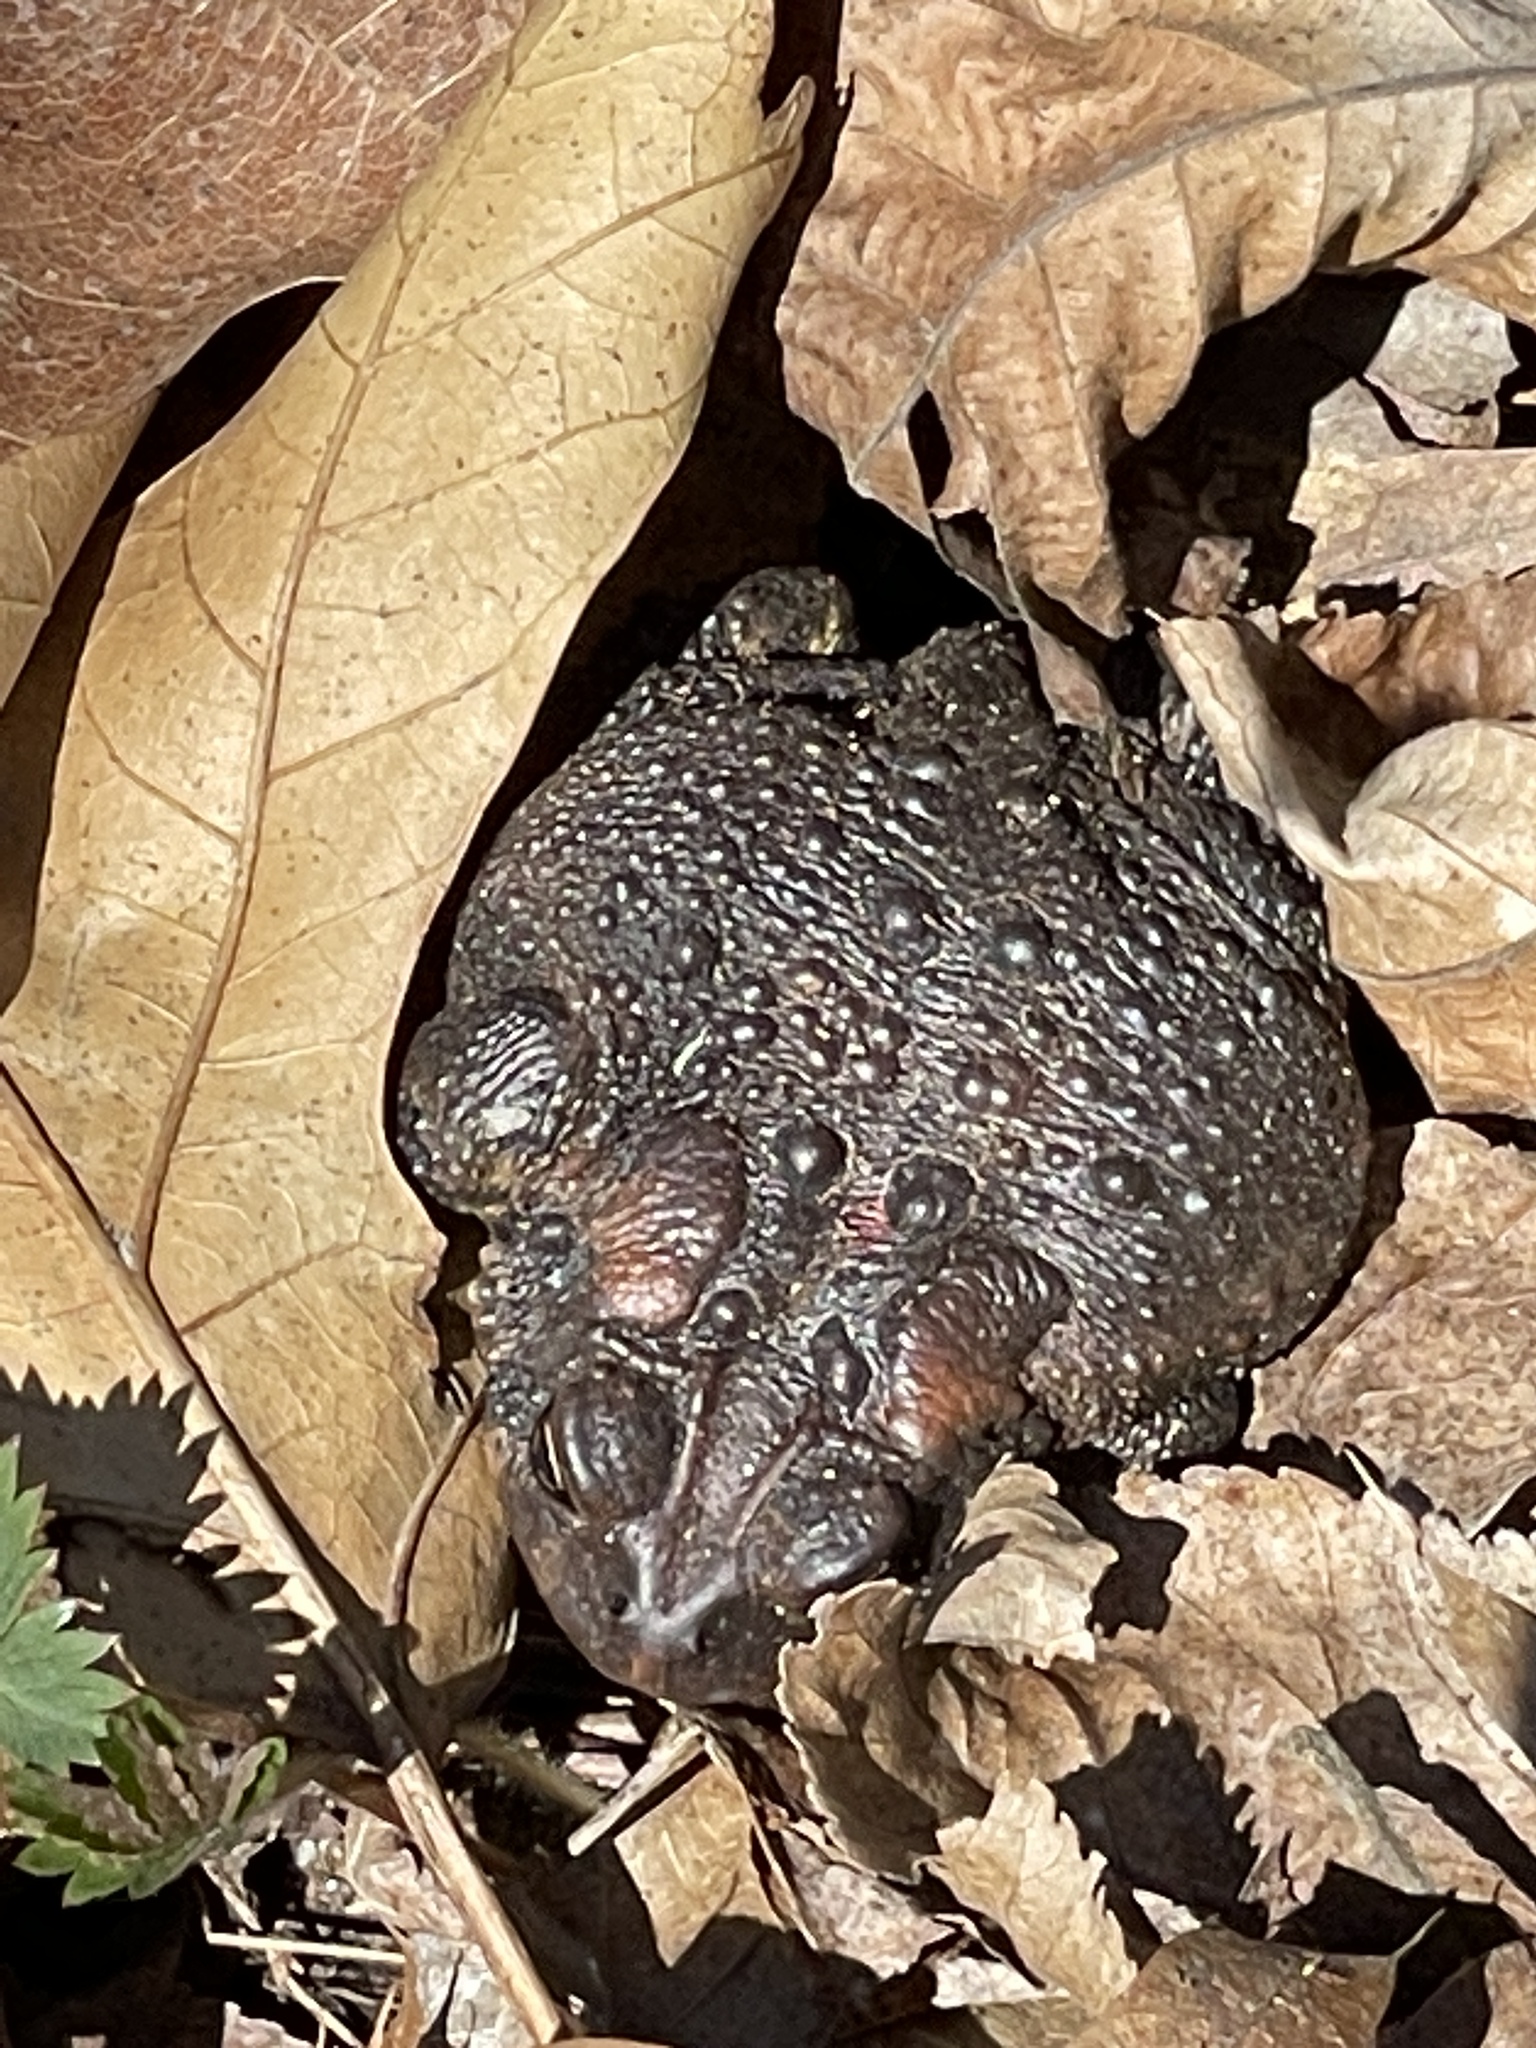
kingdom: Animalia
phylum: Chordata
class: Amphibia
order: Anura
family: Bufonidae
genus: Anaxyrus
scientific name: Anaxyrus americanus
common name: American toad
